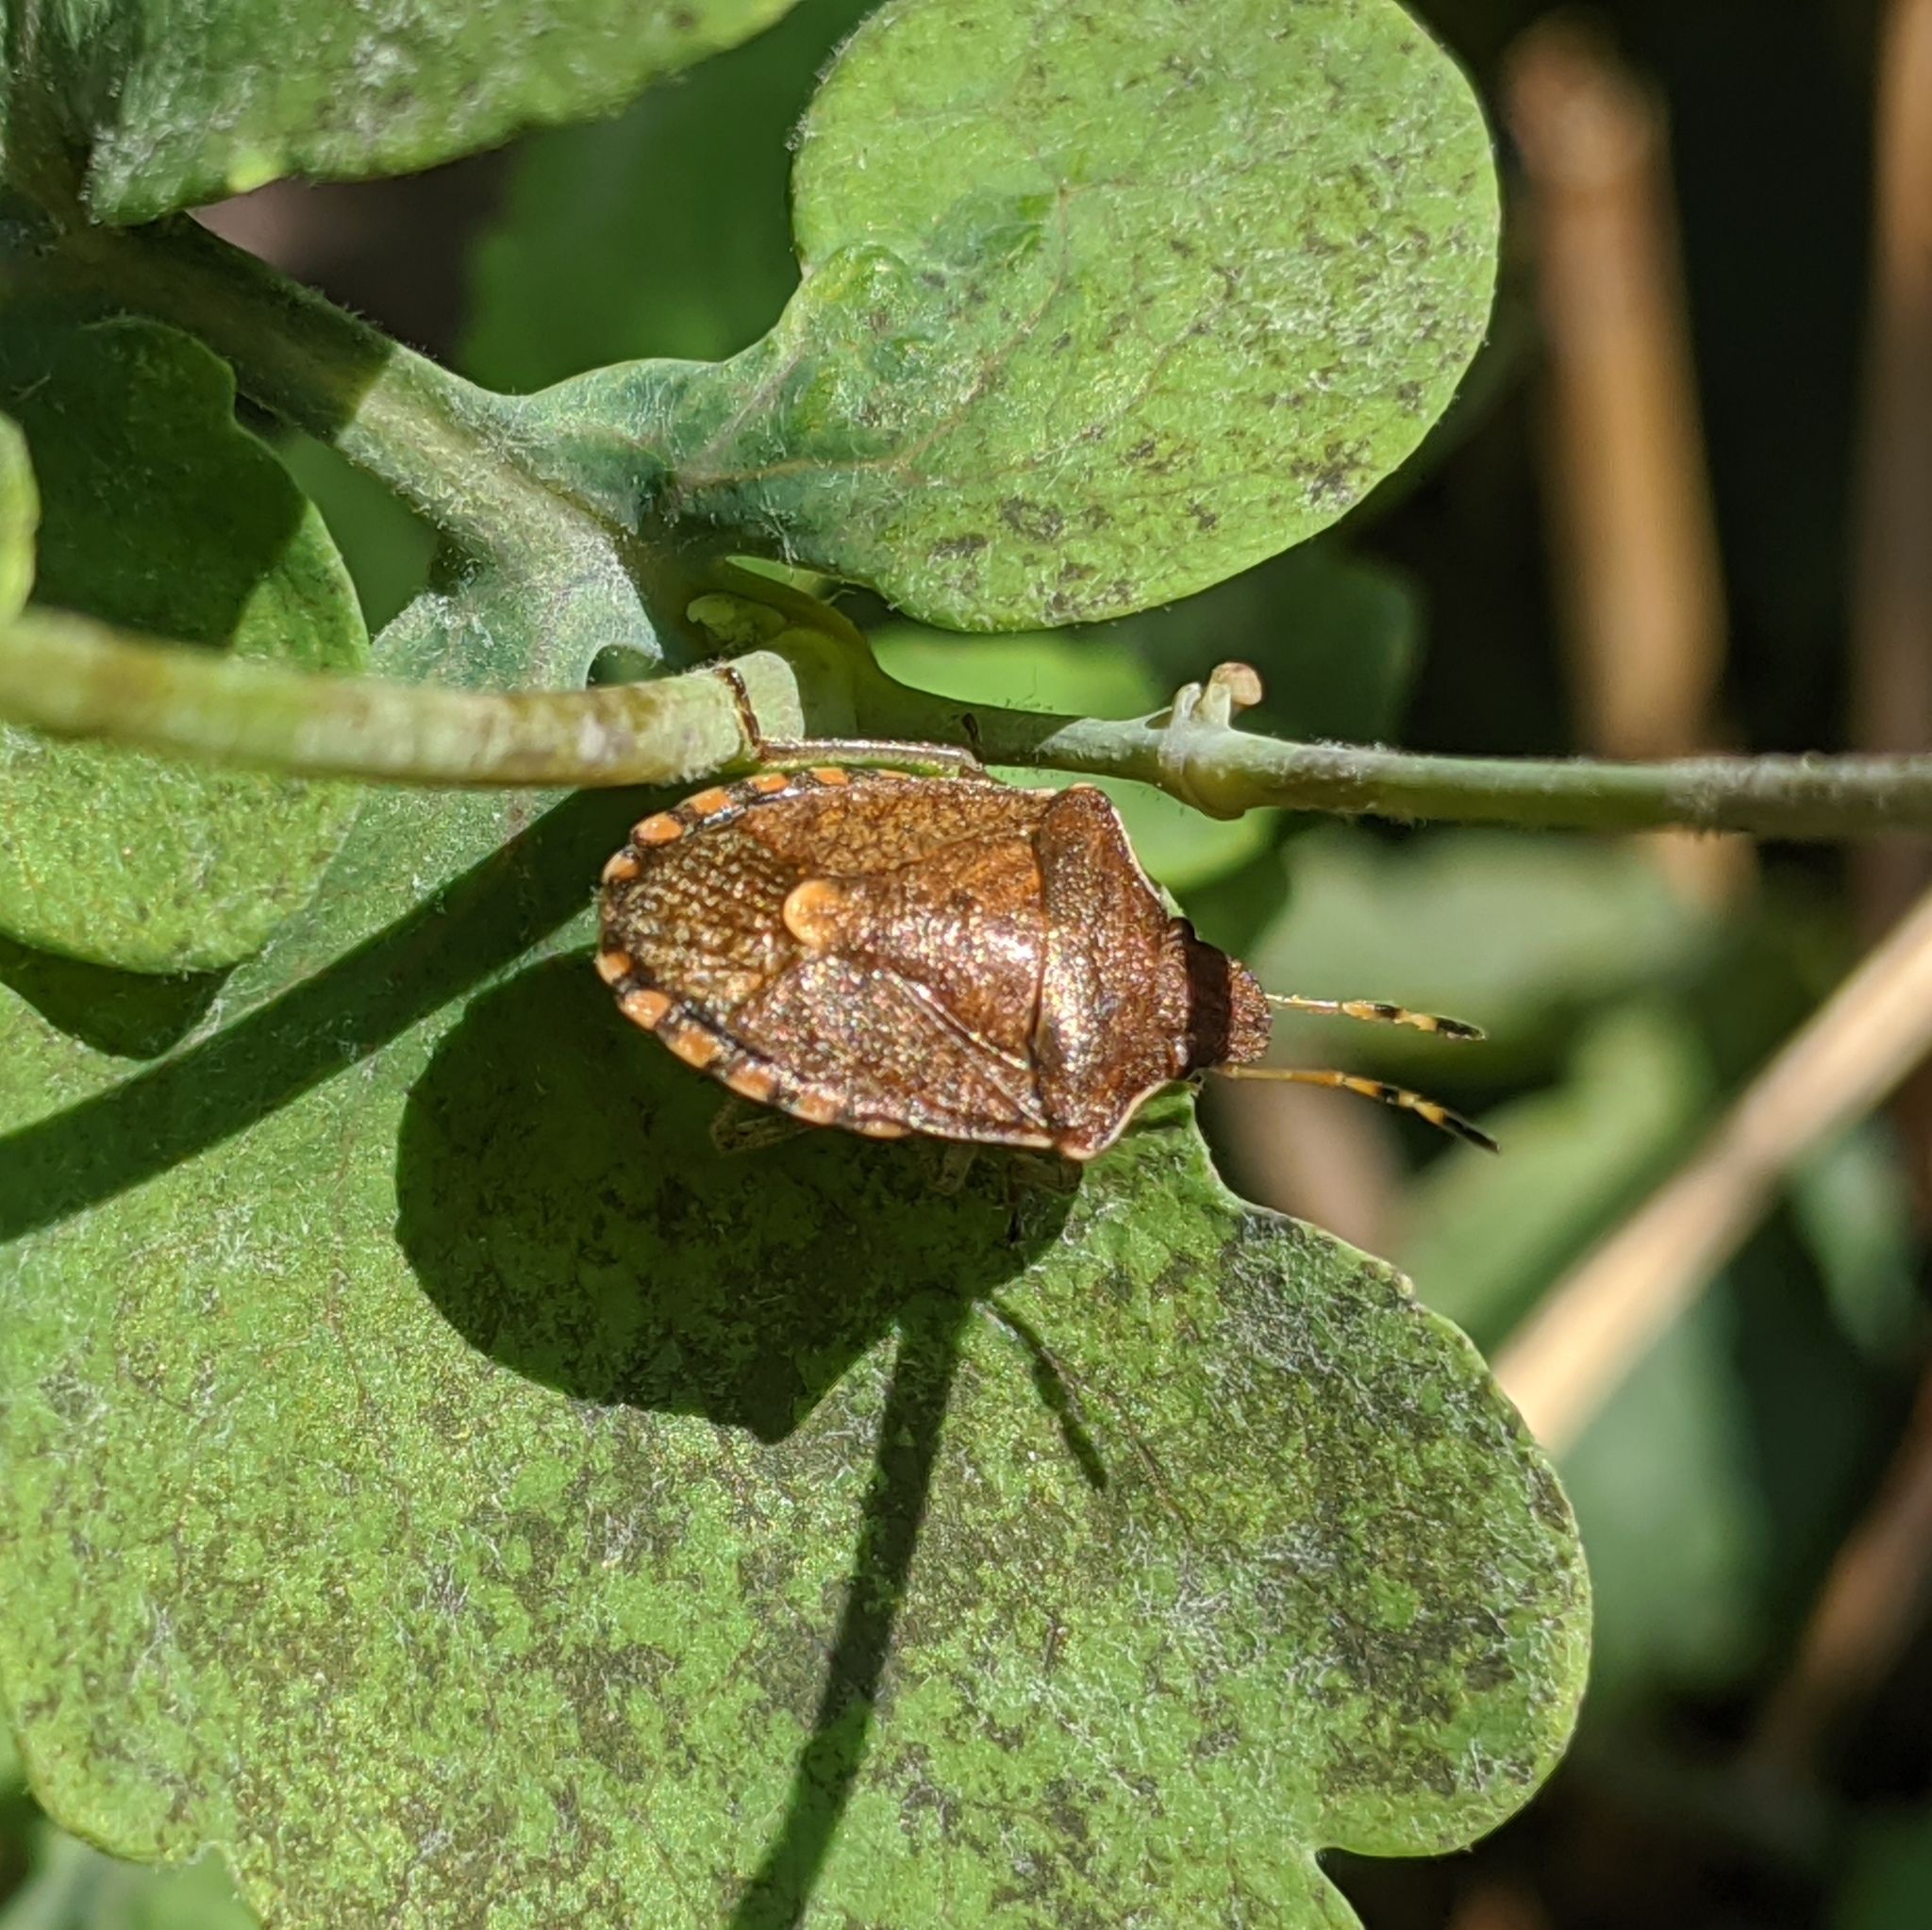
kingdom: Animalia
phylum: Arthropoda
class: Insecta
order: Hemiptera
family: Pentatomidae
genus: Holcostethus
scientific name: Holcostethus strictus
